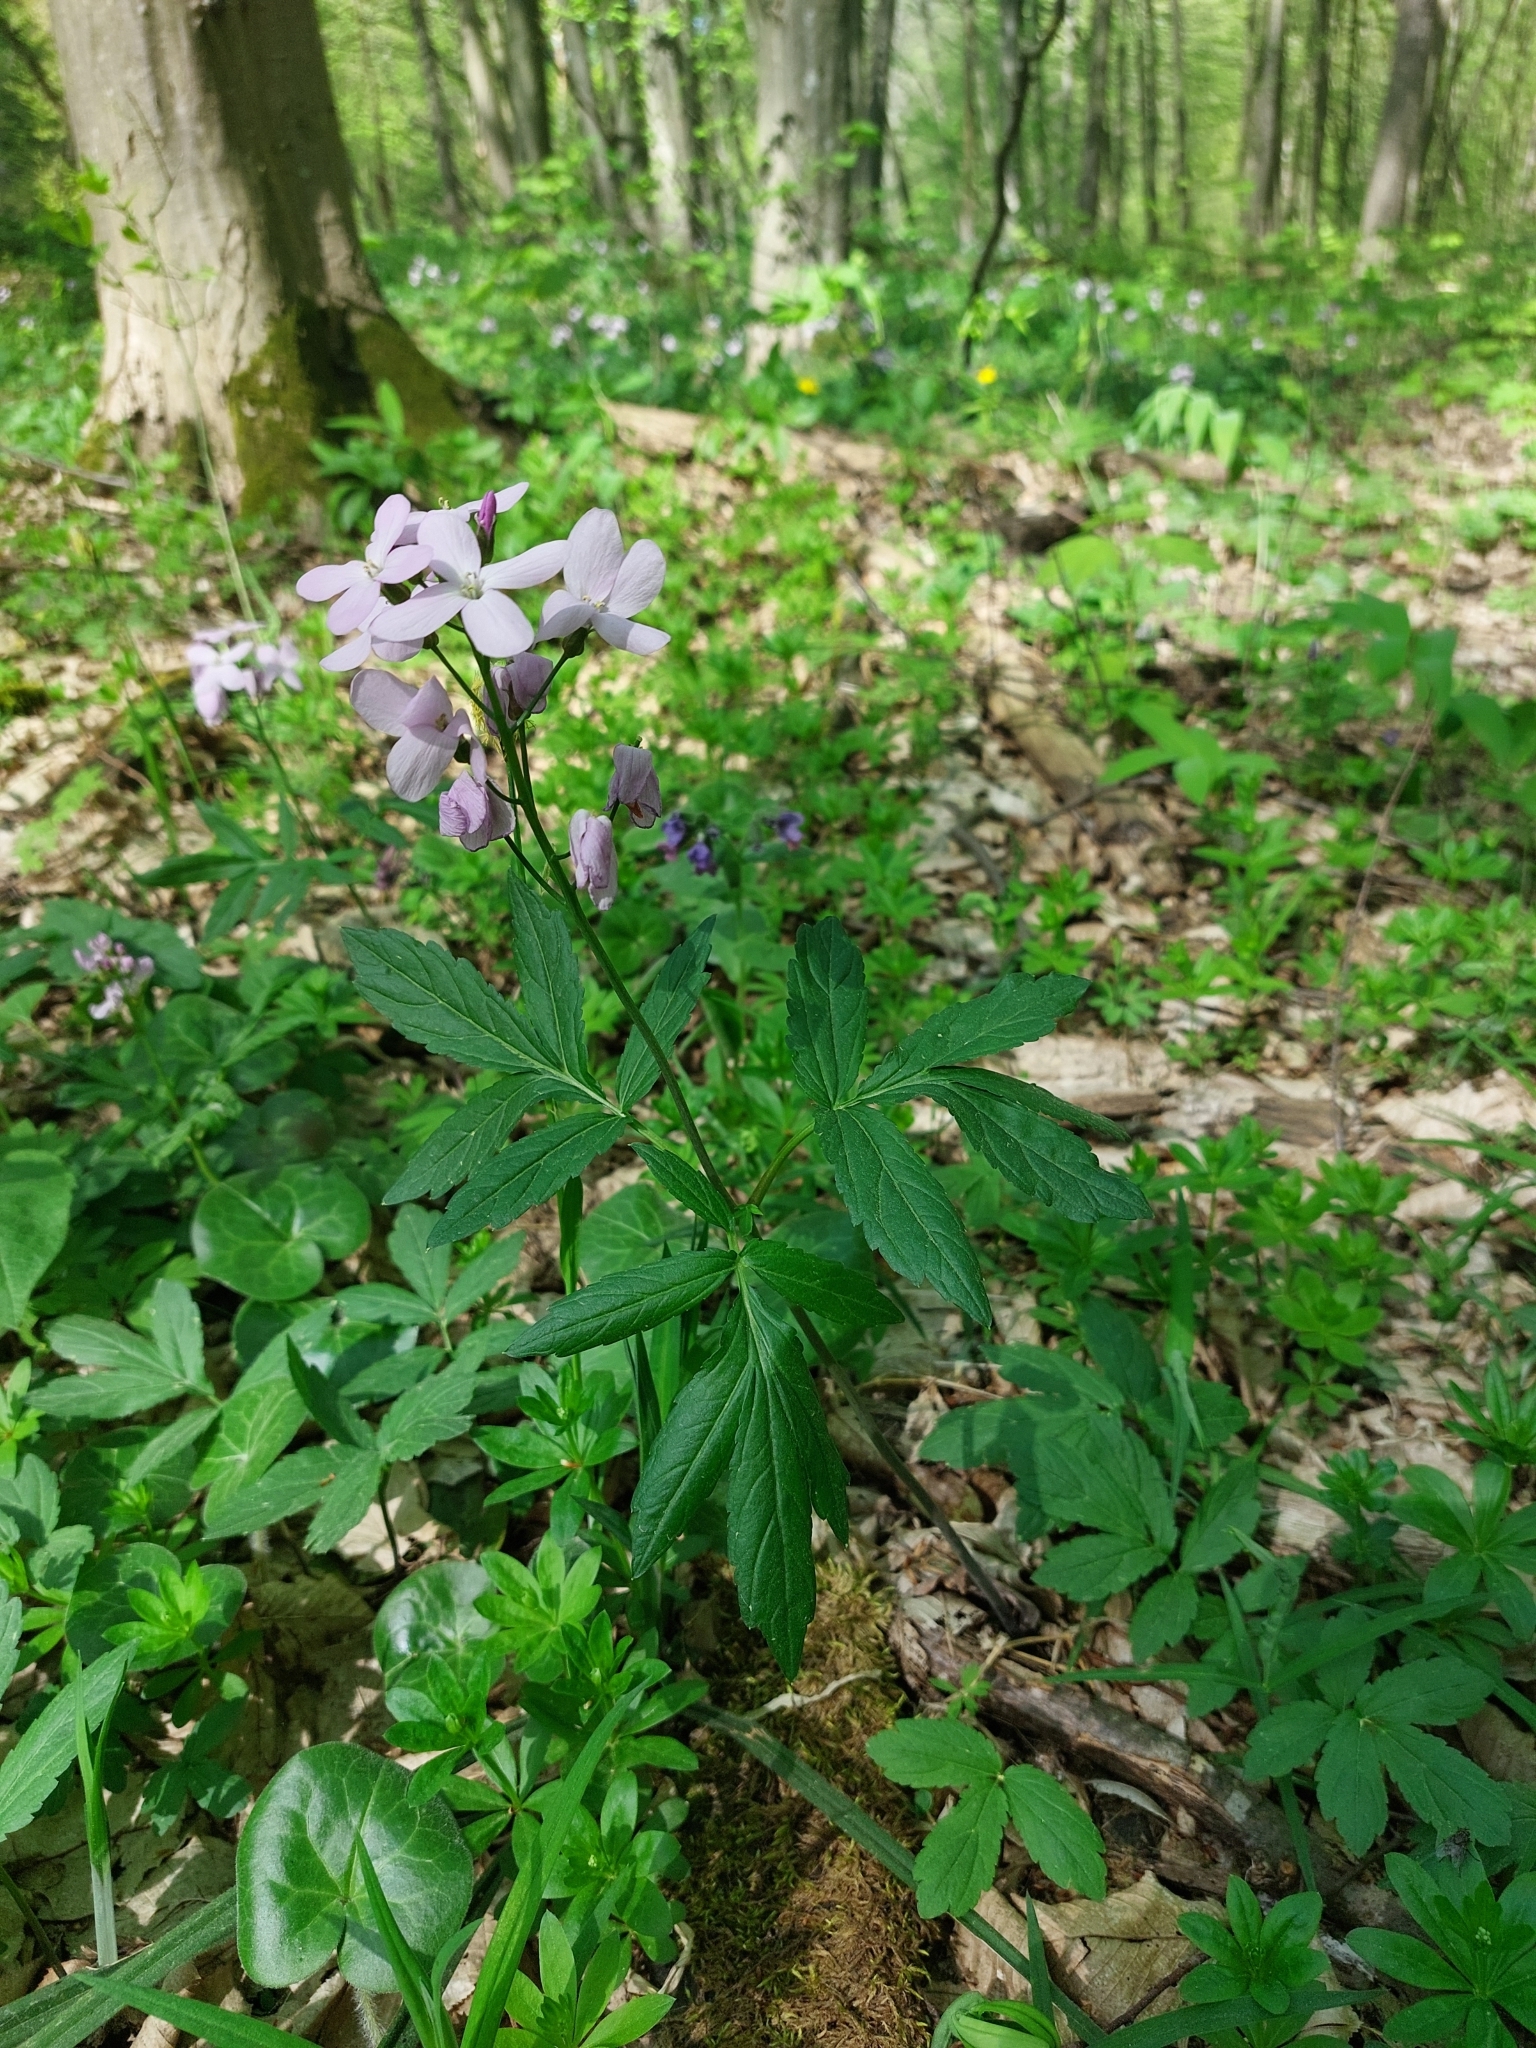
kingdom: Plantae
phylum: Tracheophyta
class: Magnoliopsida
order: Brassicales
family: Brassicaceae
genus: Cardamine
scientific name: Cardamine quinquefolia
